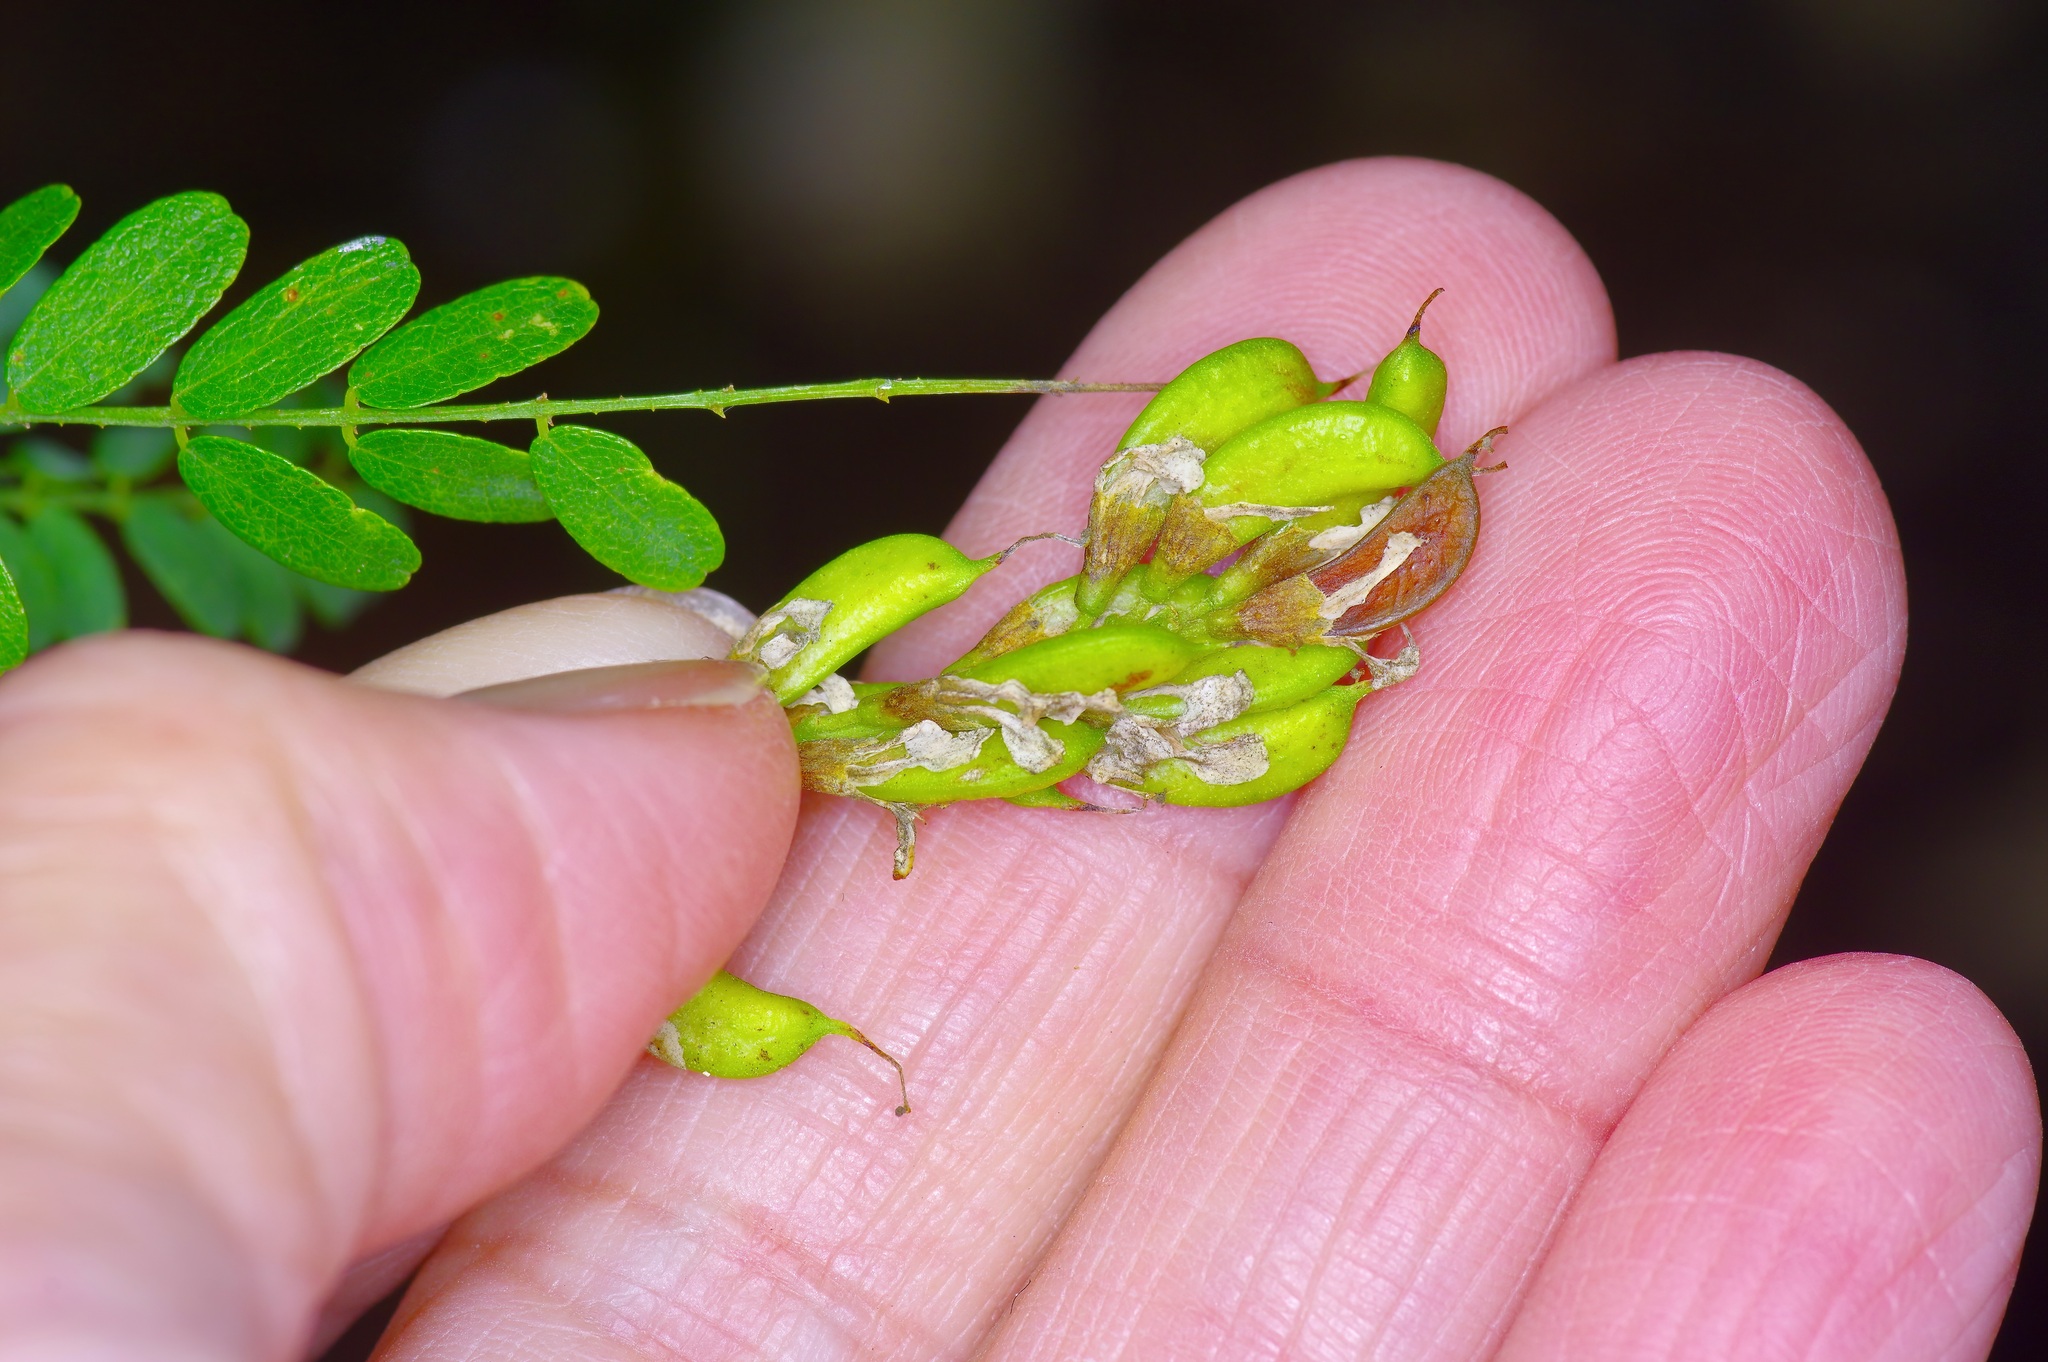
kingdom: Plantae
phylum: Tracheophyta
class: Magnoliopsida
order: Fabales
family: Fabaceae
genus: Eysenhardtia
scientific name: Eysenhardtia texana
